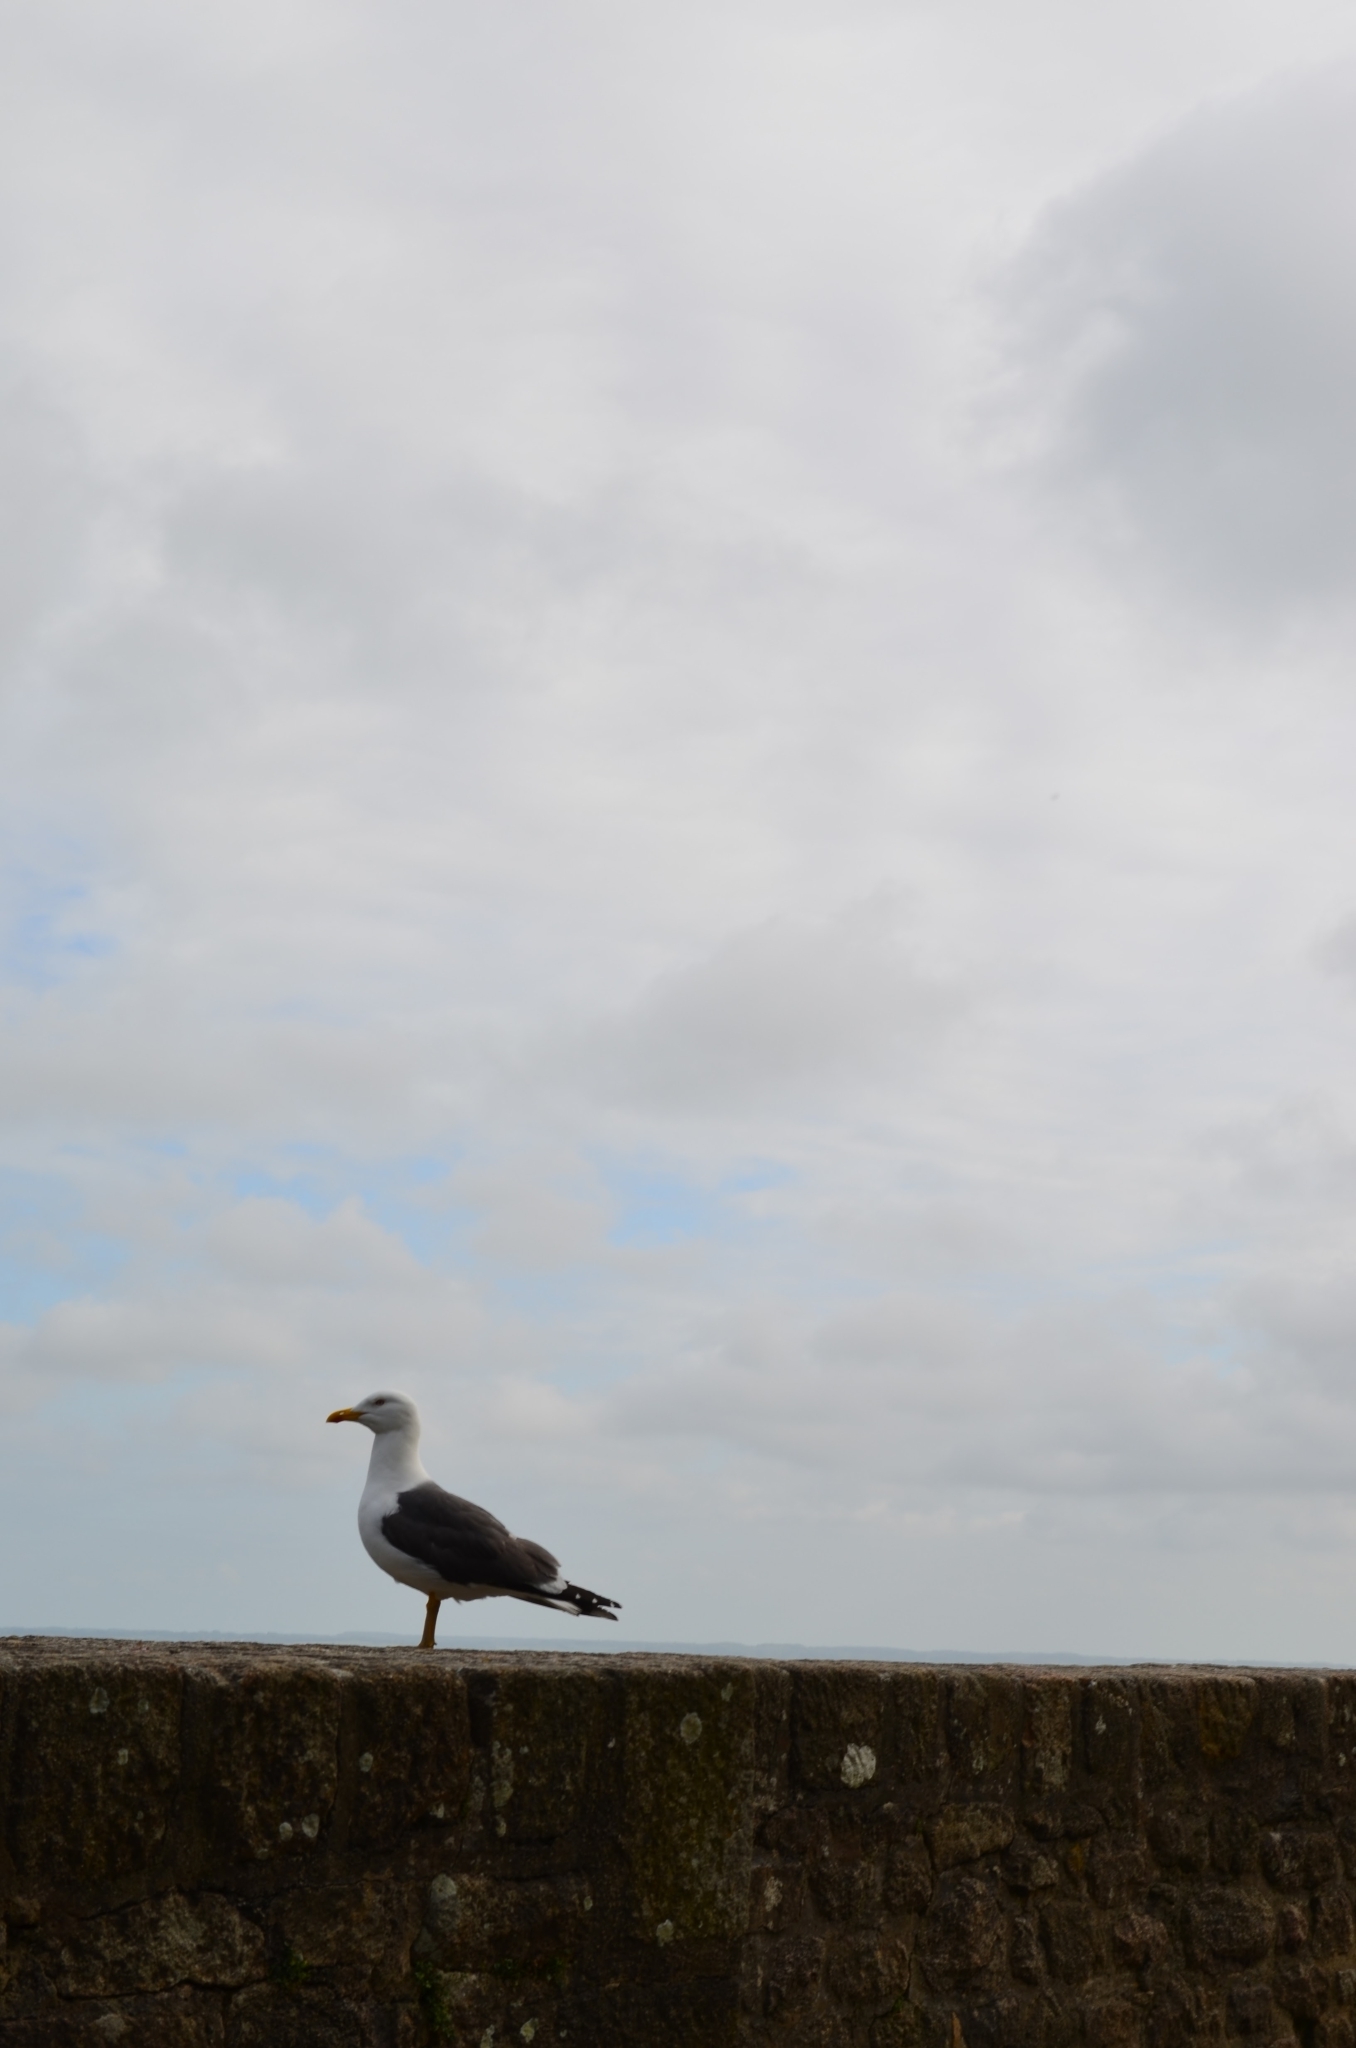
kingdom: Animalia
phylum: Chordata
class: Aves
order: Charadriiformes
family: Laridae
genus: Larus
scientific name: Larus fuscus
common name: Lesser black-backed gull
